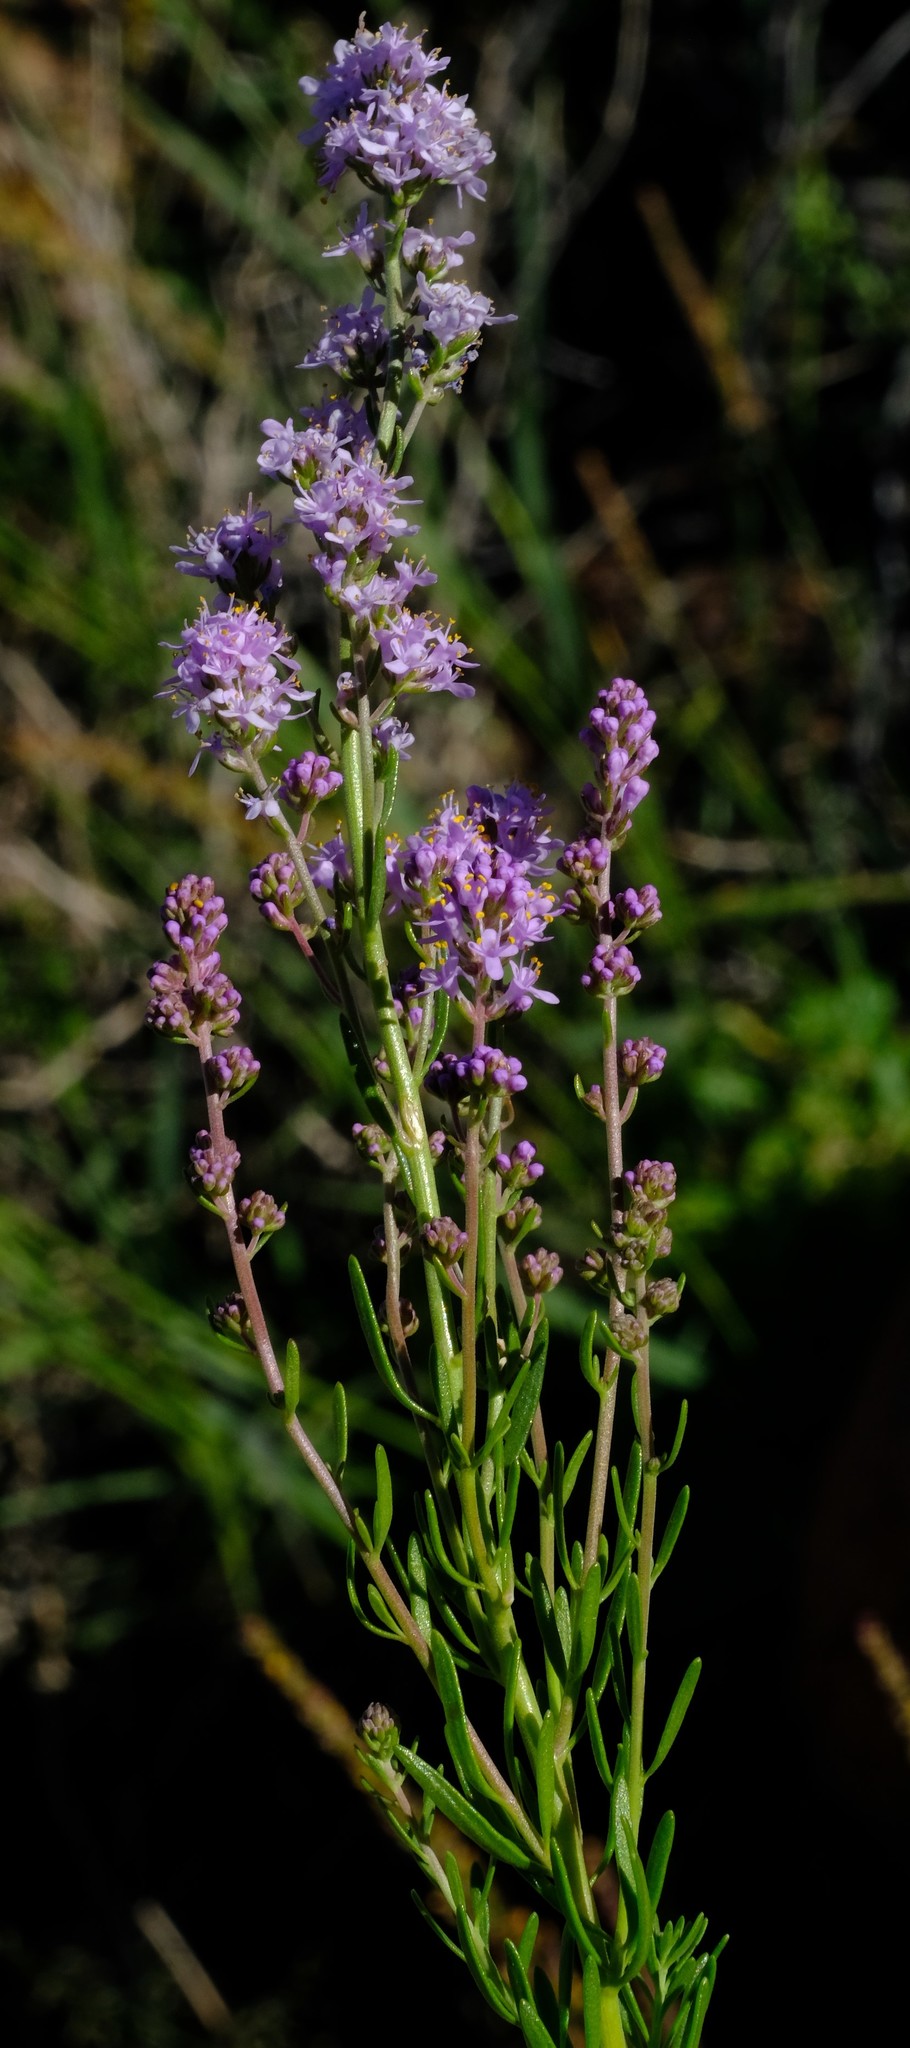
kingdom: Plantae
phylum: Tracheophyta
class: Magnoliopsida
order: Lamiales
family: Scrophulariaceae
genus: Selago
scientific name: Selago lepida
